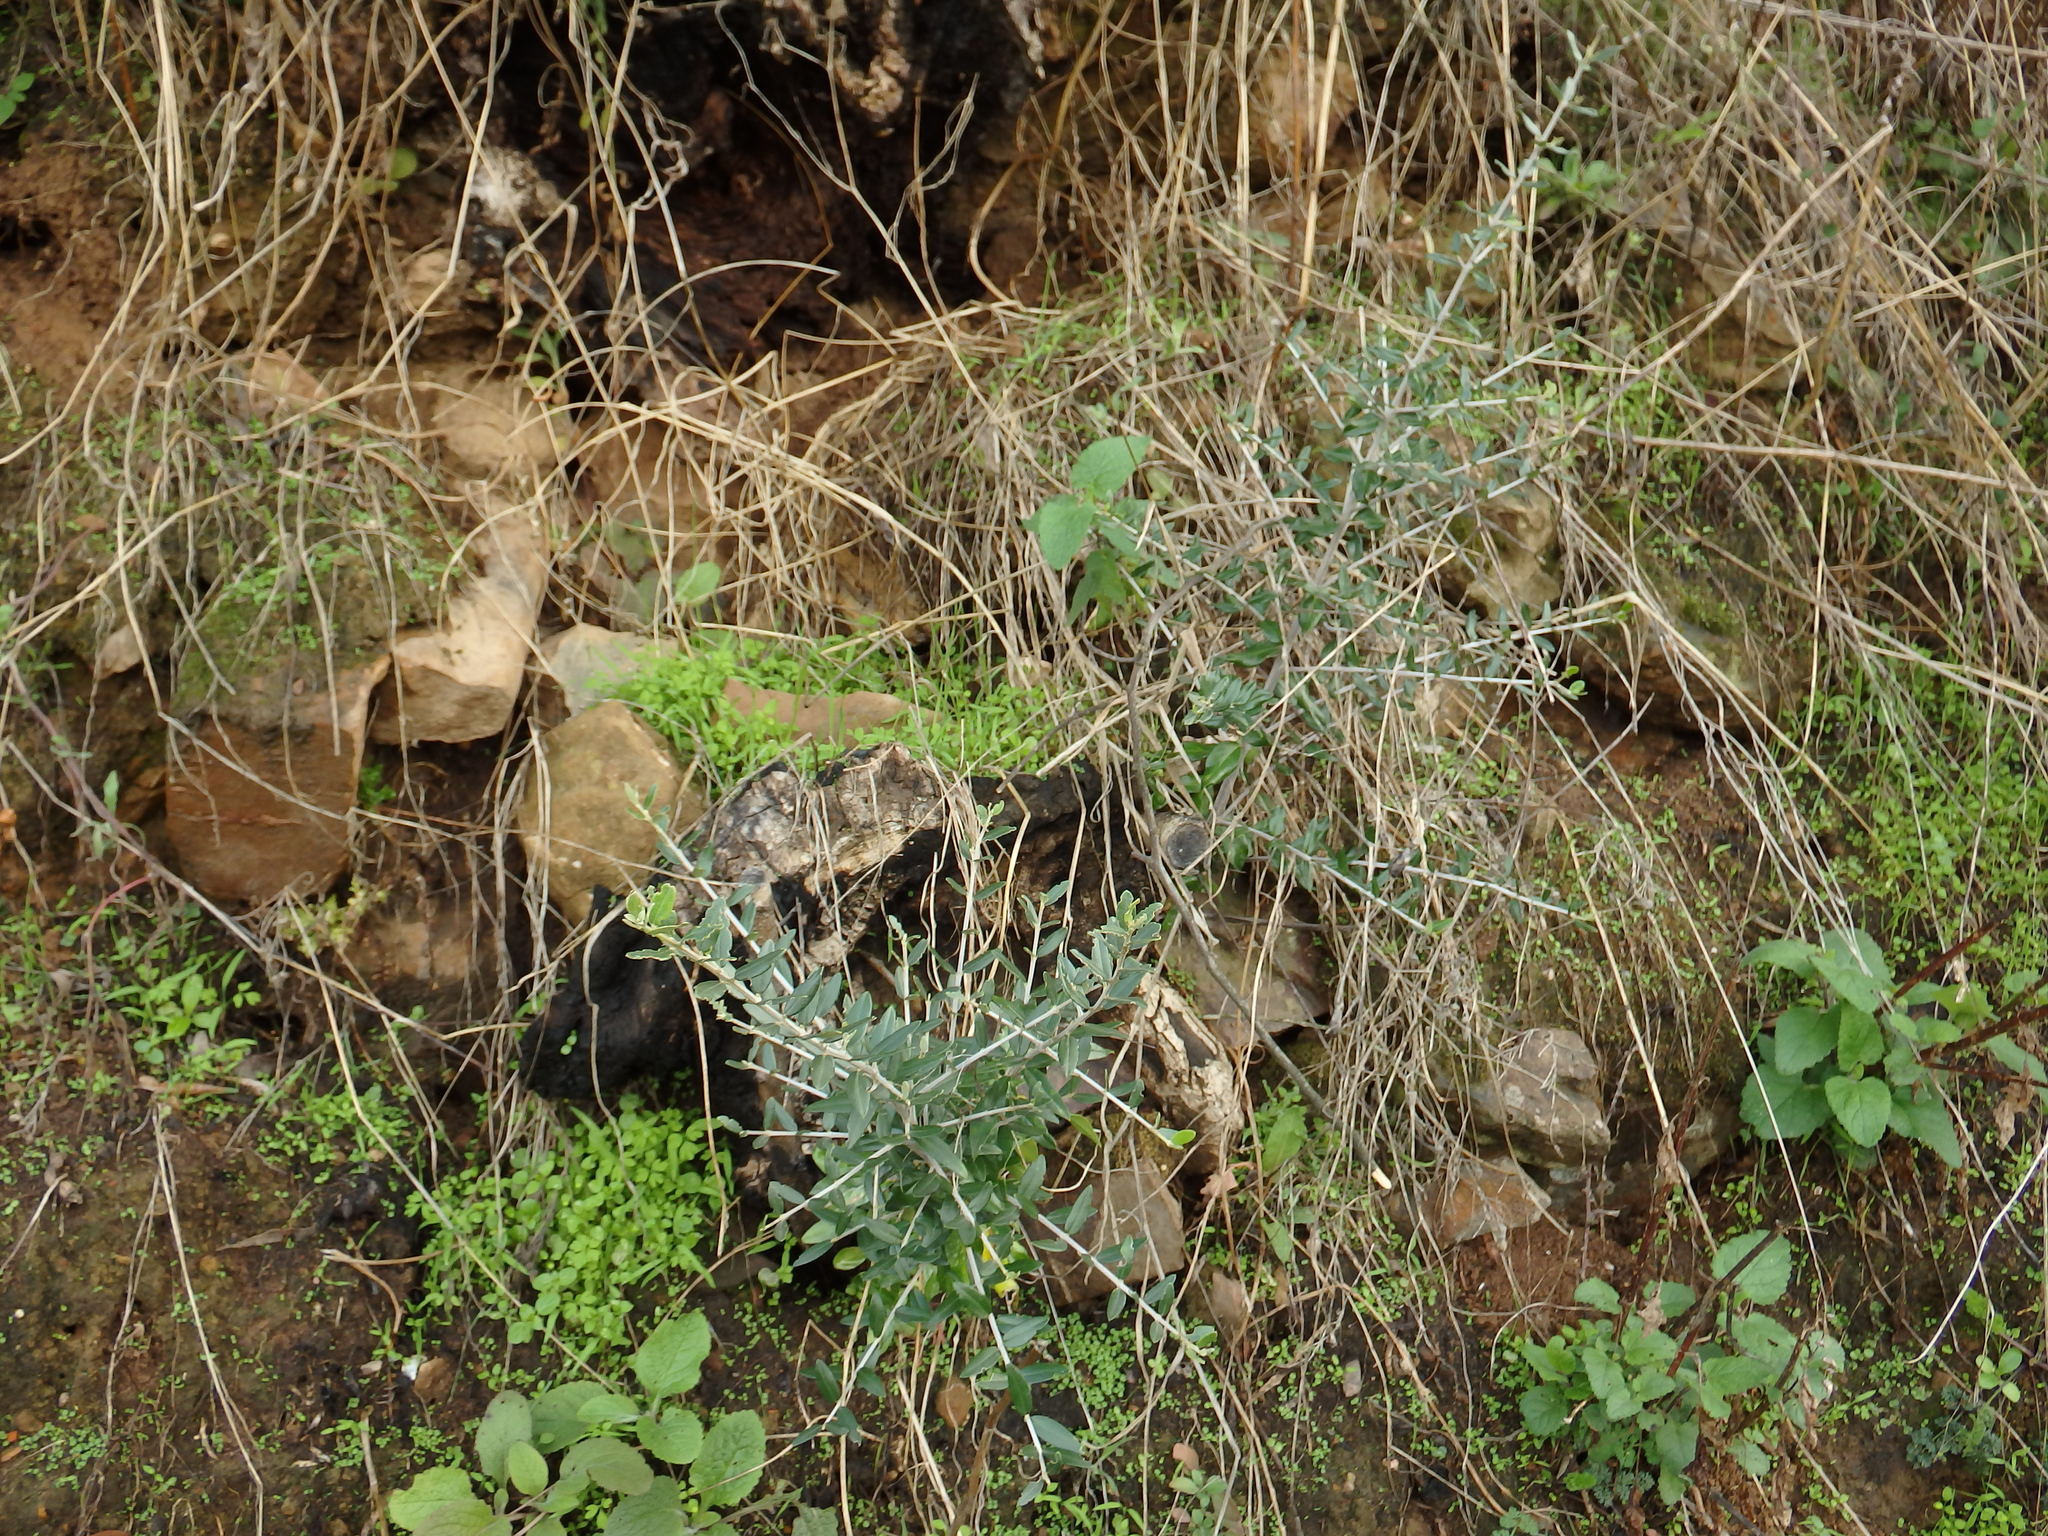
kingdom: Plantae
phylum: Tracheophyta
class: Magnoliopsida
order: Lamiales
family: Oleaceae
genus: Olea
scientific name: Olea europaea
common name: Olive
